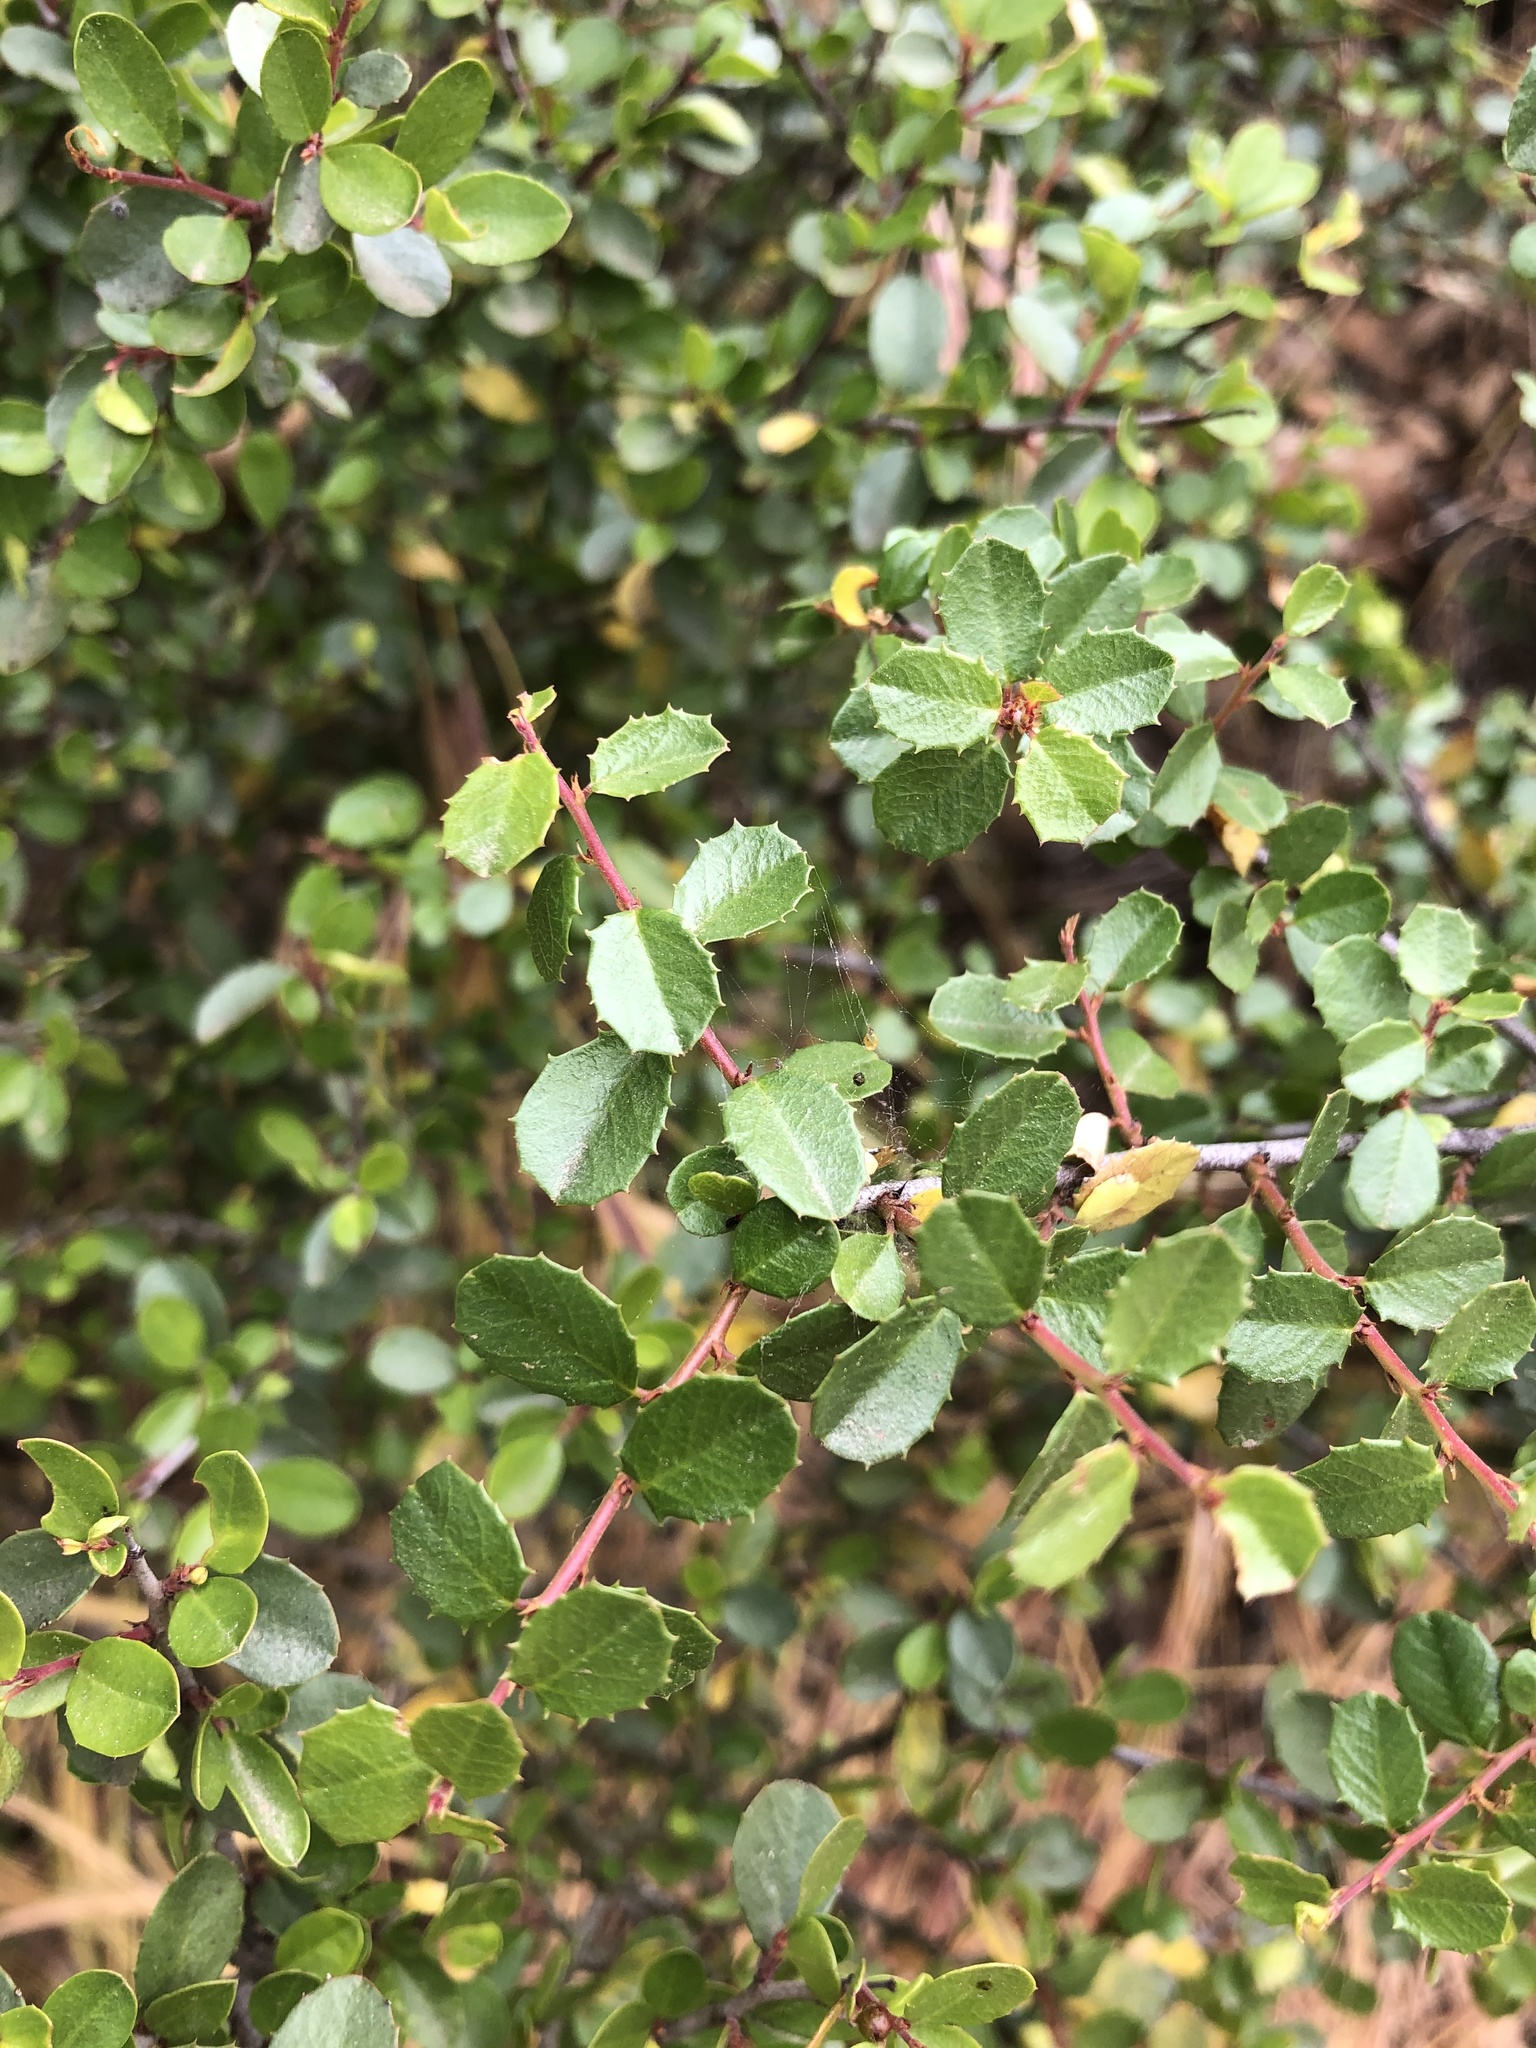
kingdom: Plantae
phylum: Tracheophyta
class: Magnoliopsida
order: Rosales
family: Rhamnaceae
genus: Endotropis
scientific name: Endotropis crocea
